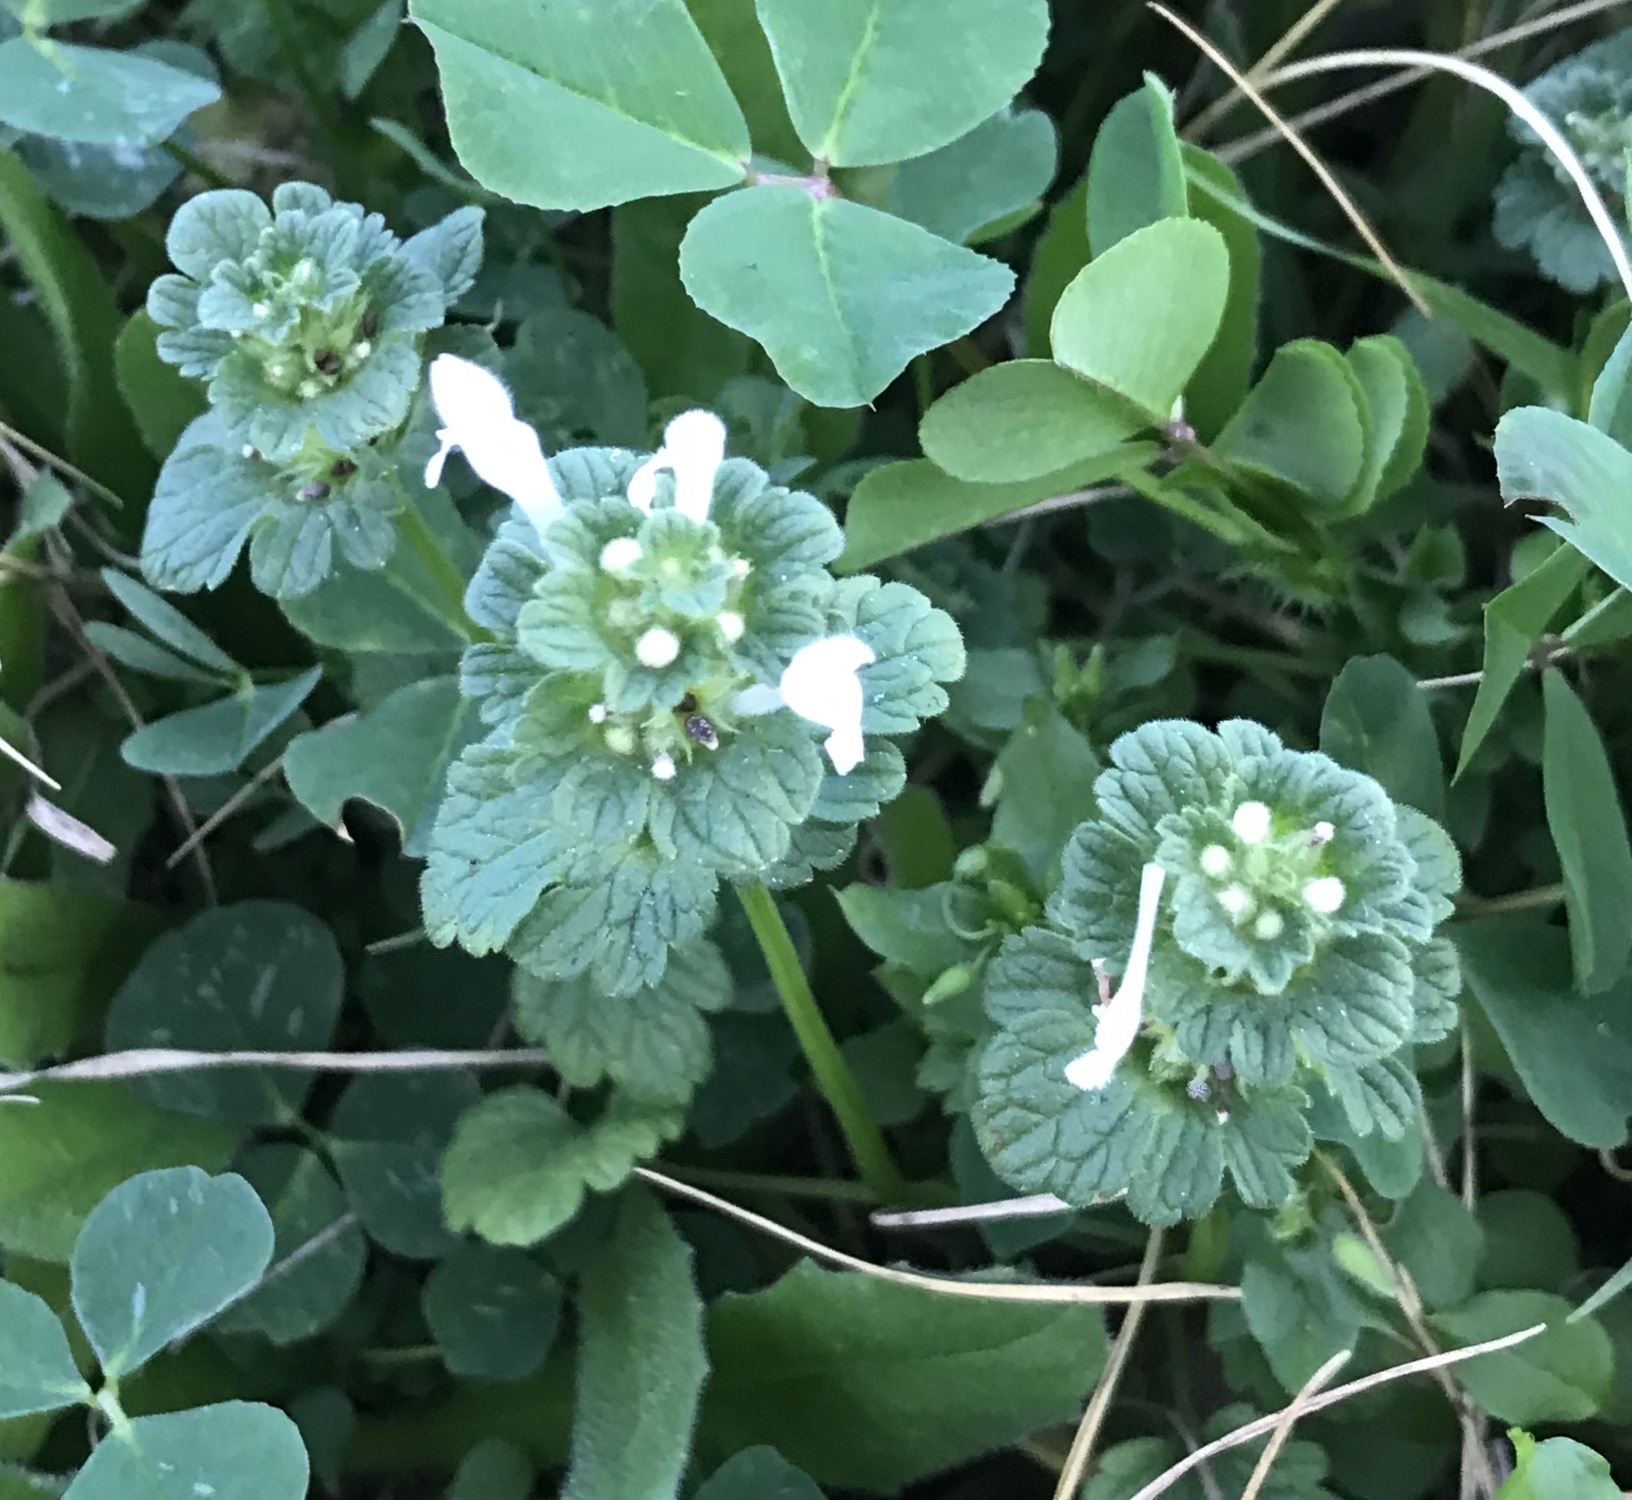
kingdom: Plantae
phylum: Tracheophyta
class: Magnoliopsida
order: Lamiales
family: Lamiaceae
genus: Lamium
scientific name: Lamium amplexicaule
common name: Henbit dead-nettle
